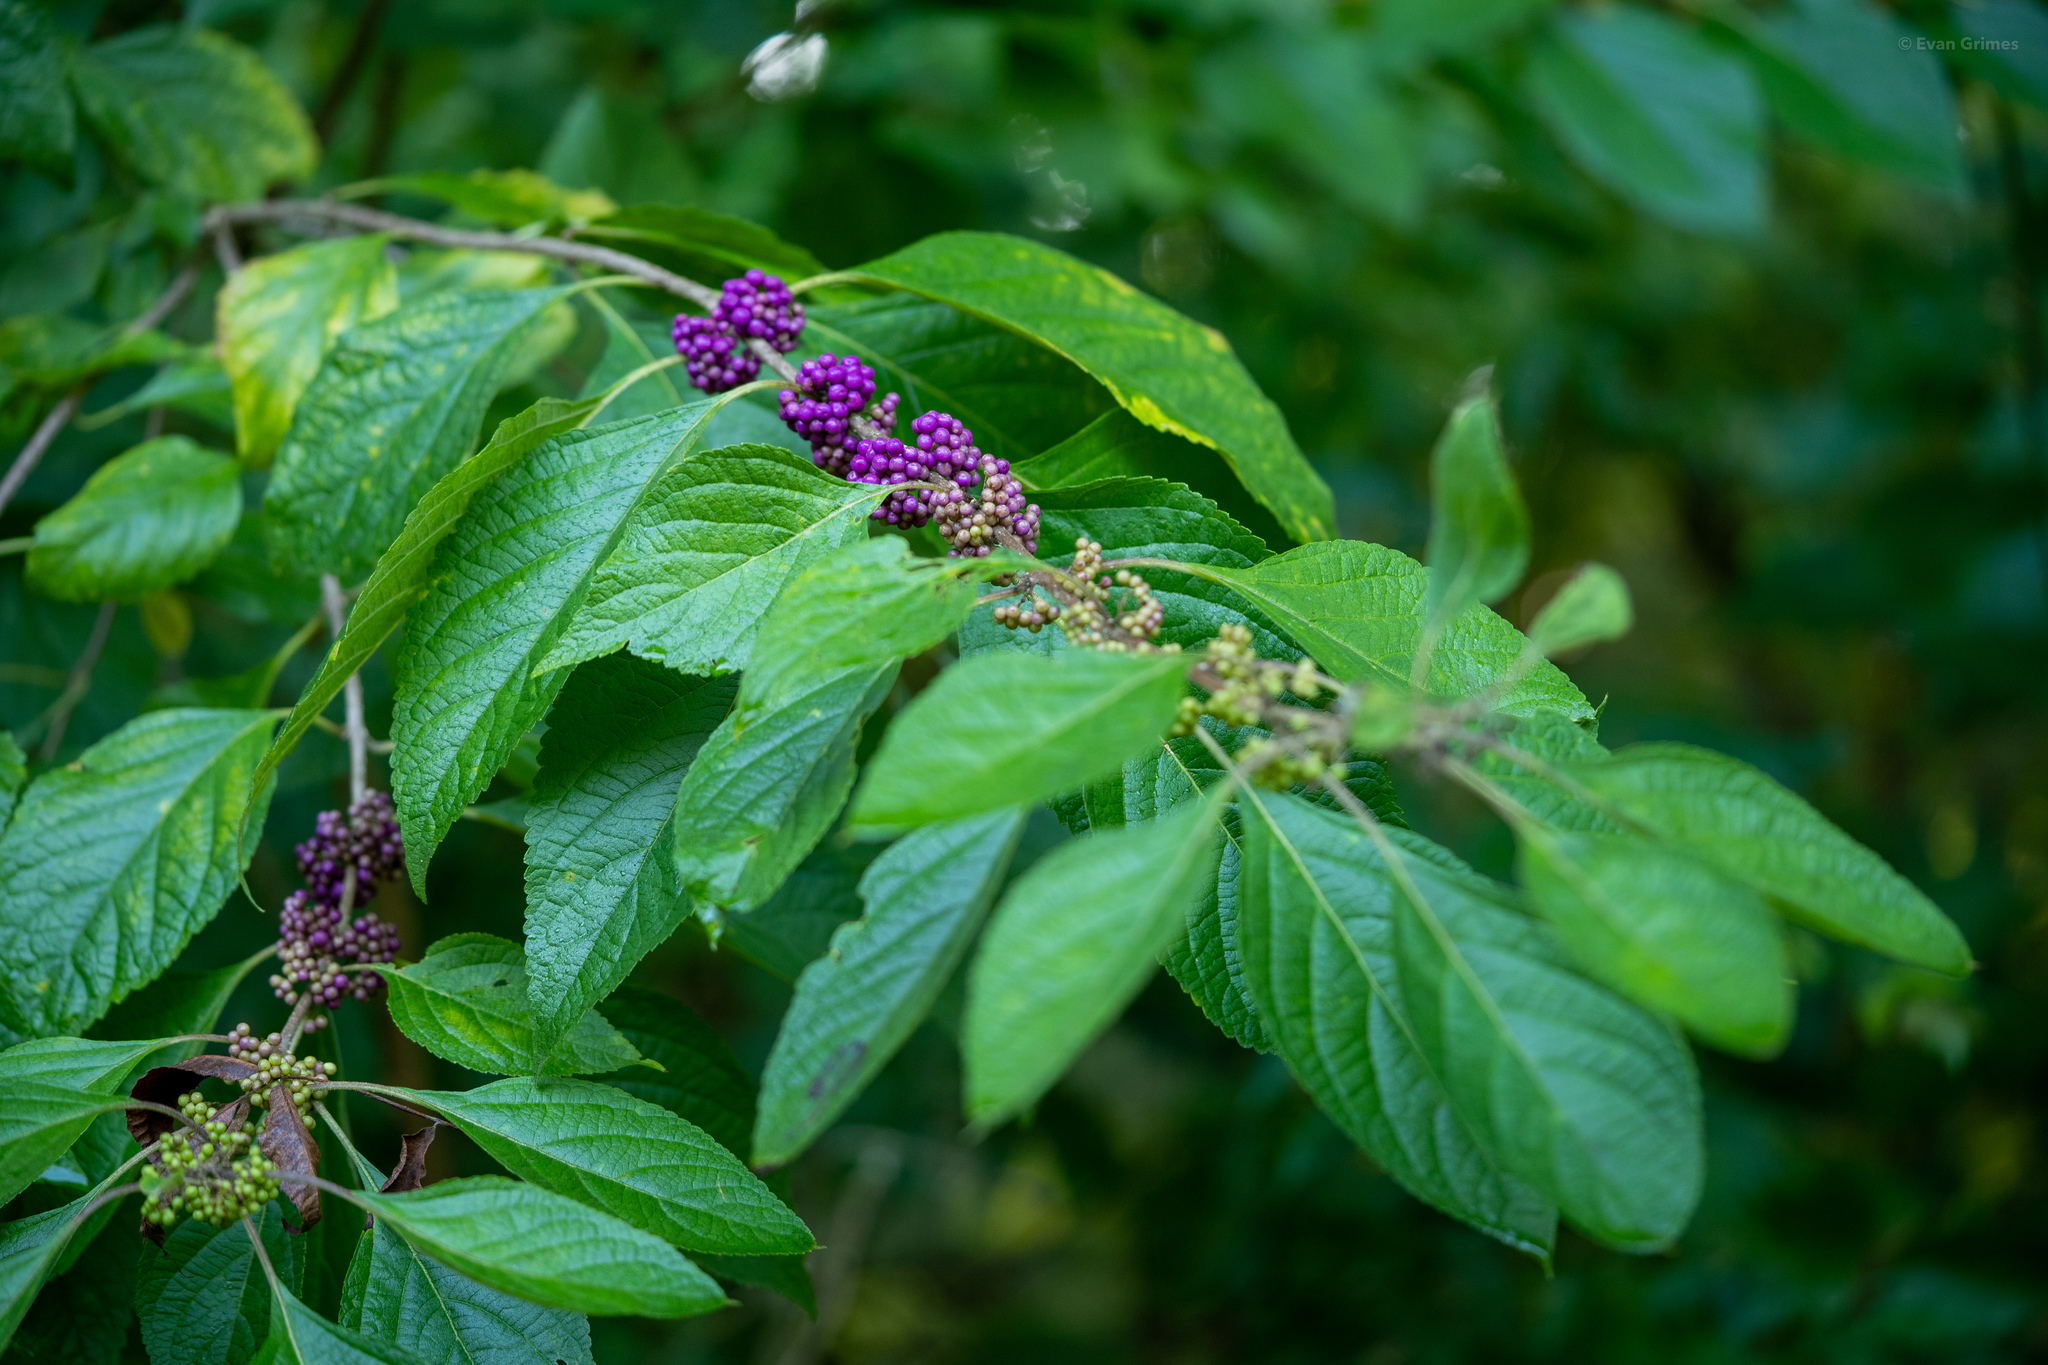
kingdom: Plantae
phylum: Tracheophyta
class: Magnoliopsida
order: Lamiales
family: Lamiaceae
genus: Callicarpa
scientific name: Callicarpa americana
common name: American beautyberry
